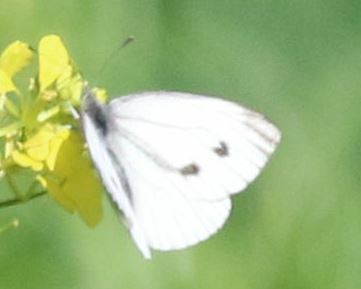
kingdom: Animalia
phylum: Arthropoda
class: Insecta
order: Lepidoptera
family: Pieridae
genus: Pieris
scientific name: Pieris napi
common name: Green-veined white
